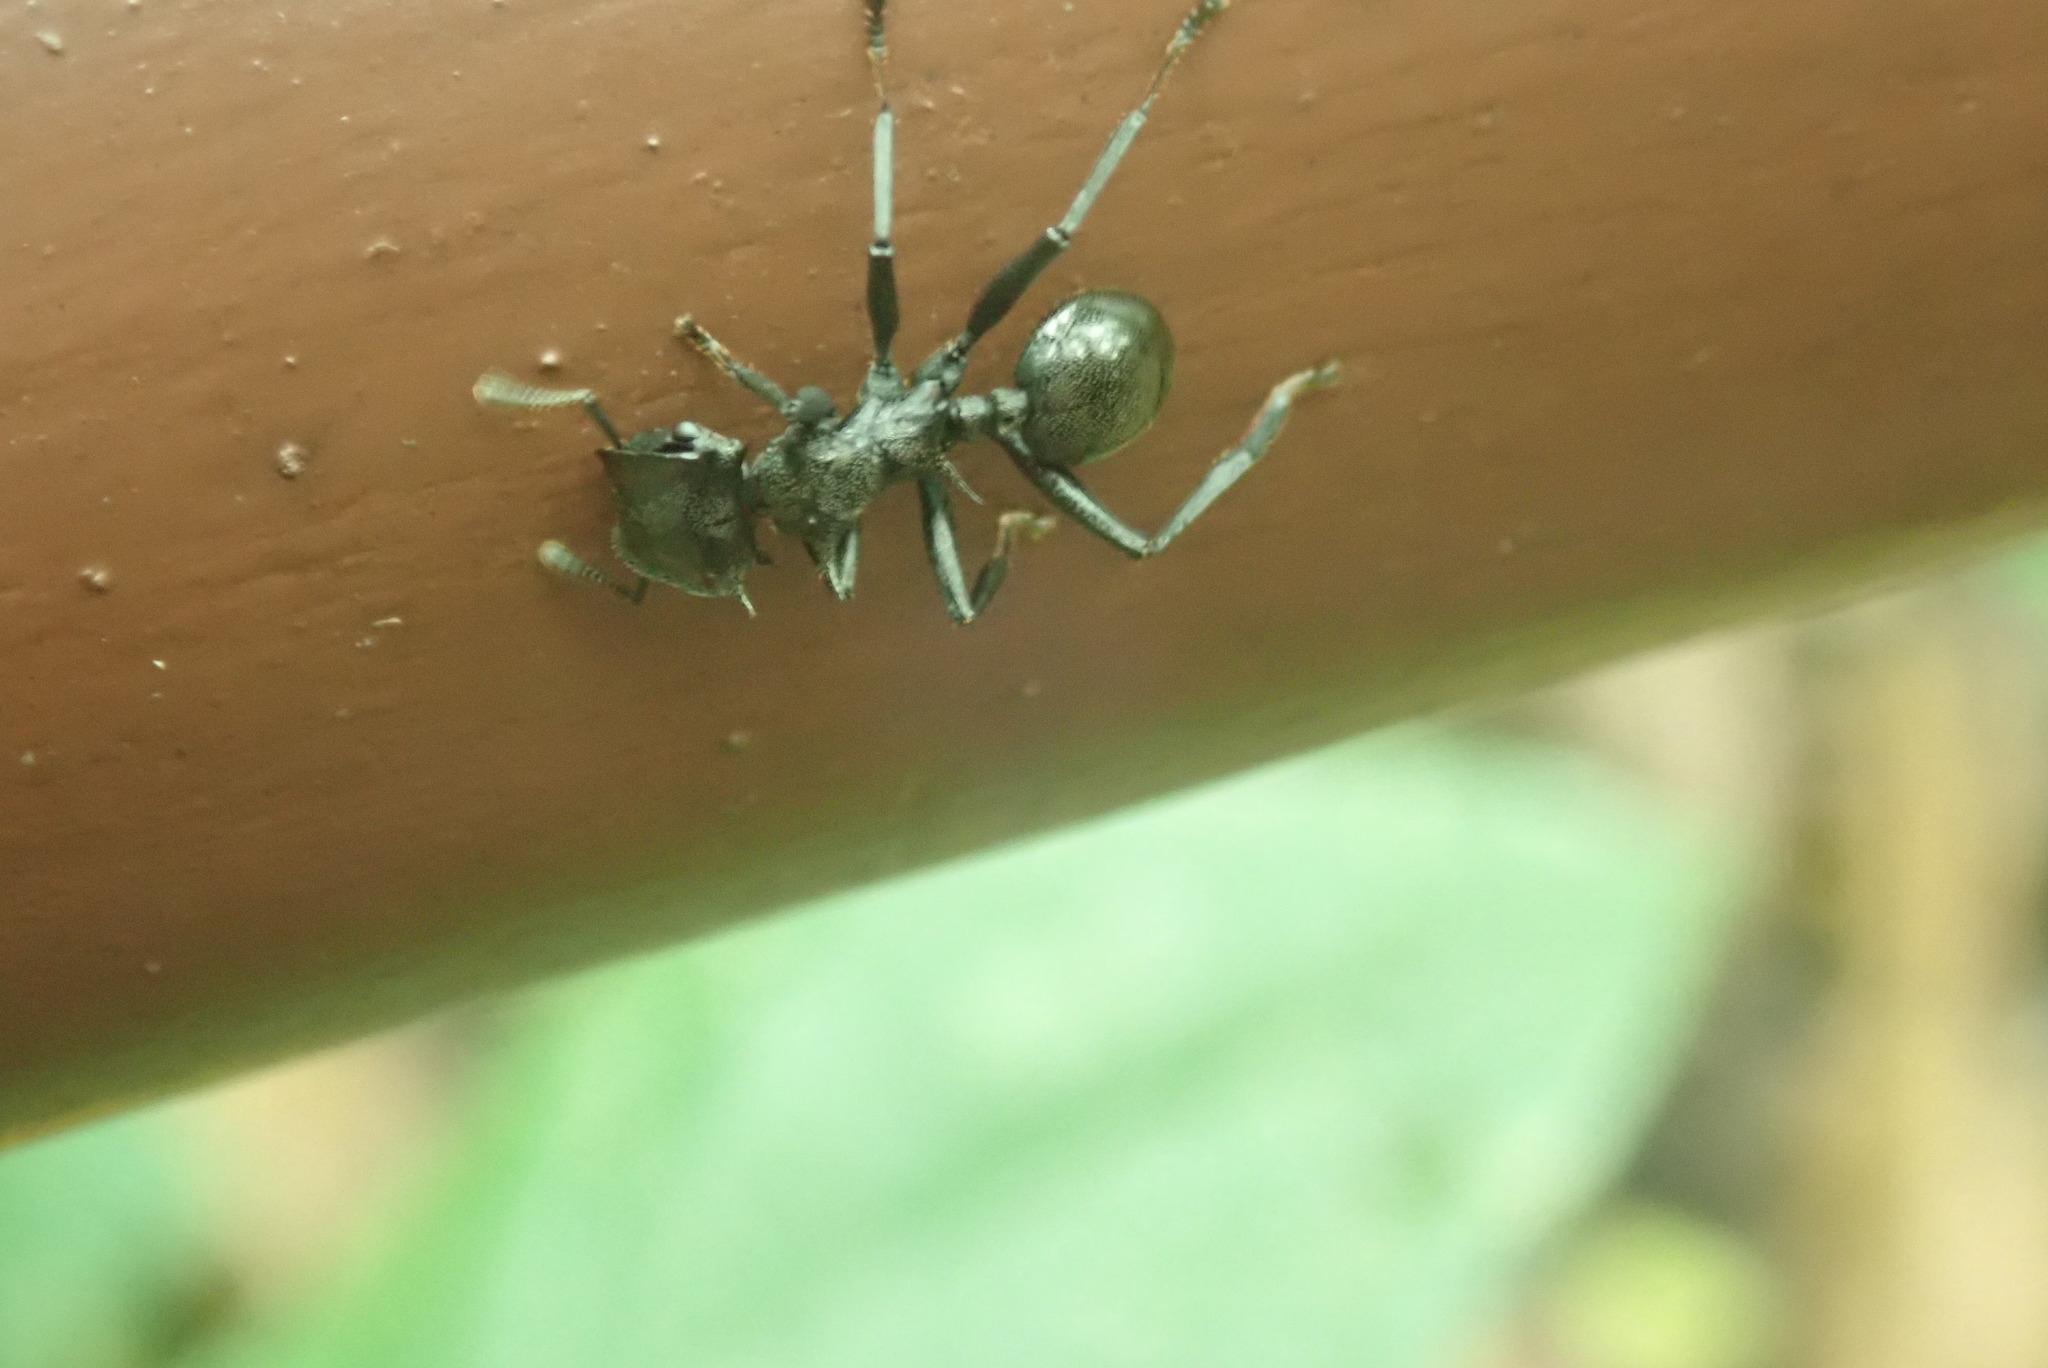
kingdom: Animalia
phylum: Arthropoda
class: Insecta
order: Hymenoptera
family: Formicidae
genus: Cephalotes
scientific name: Cephalotes atratus
